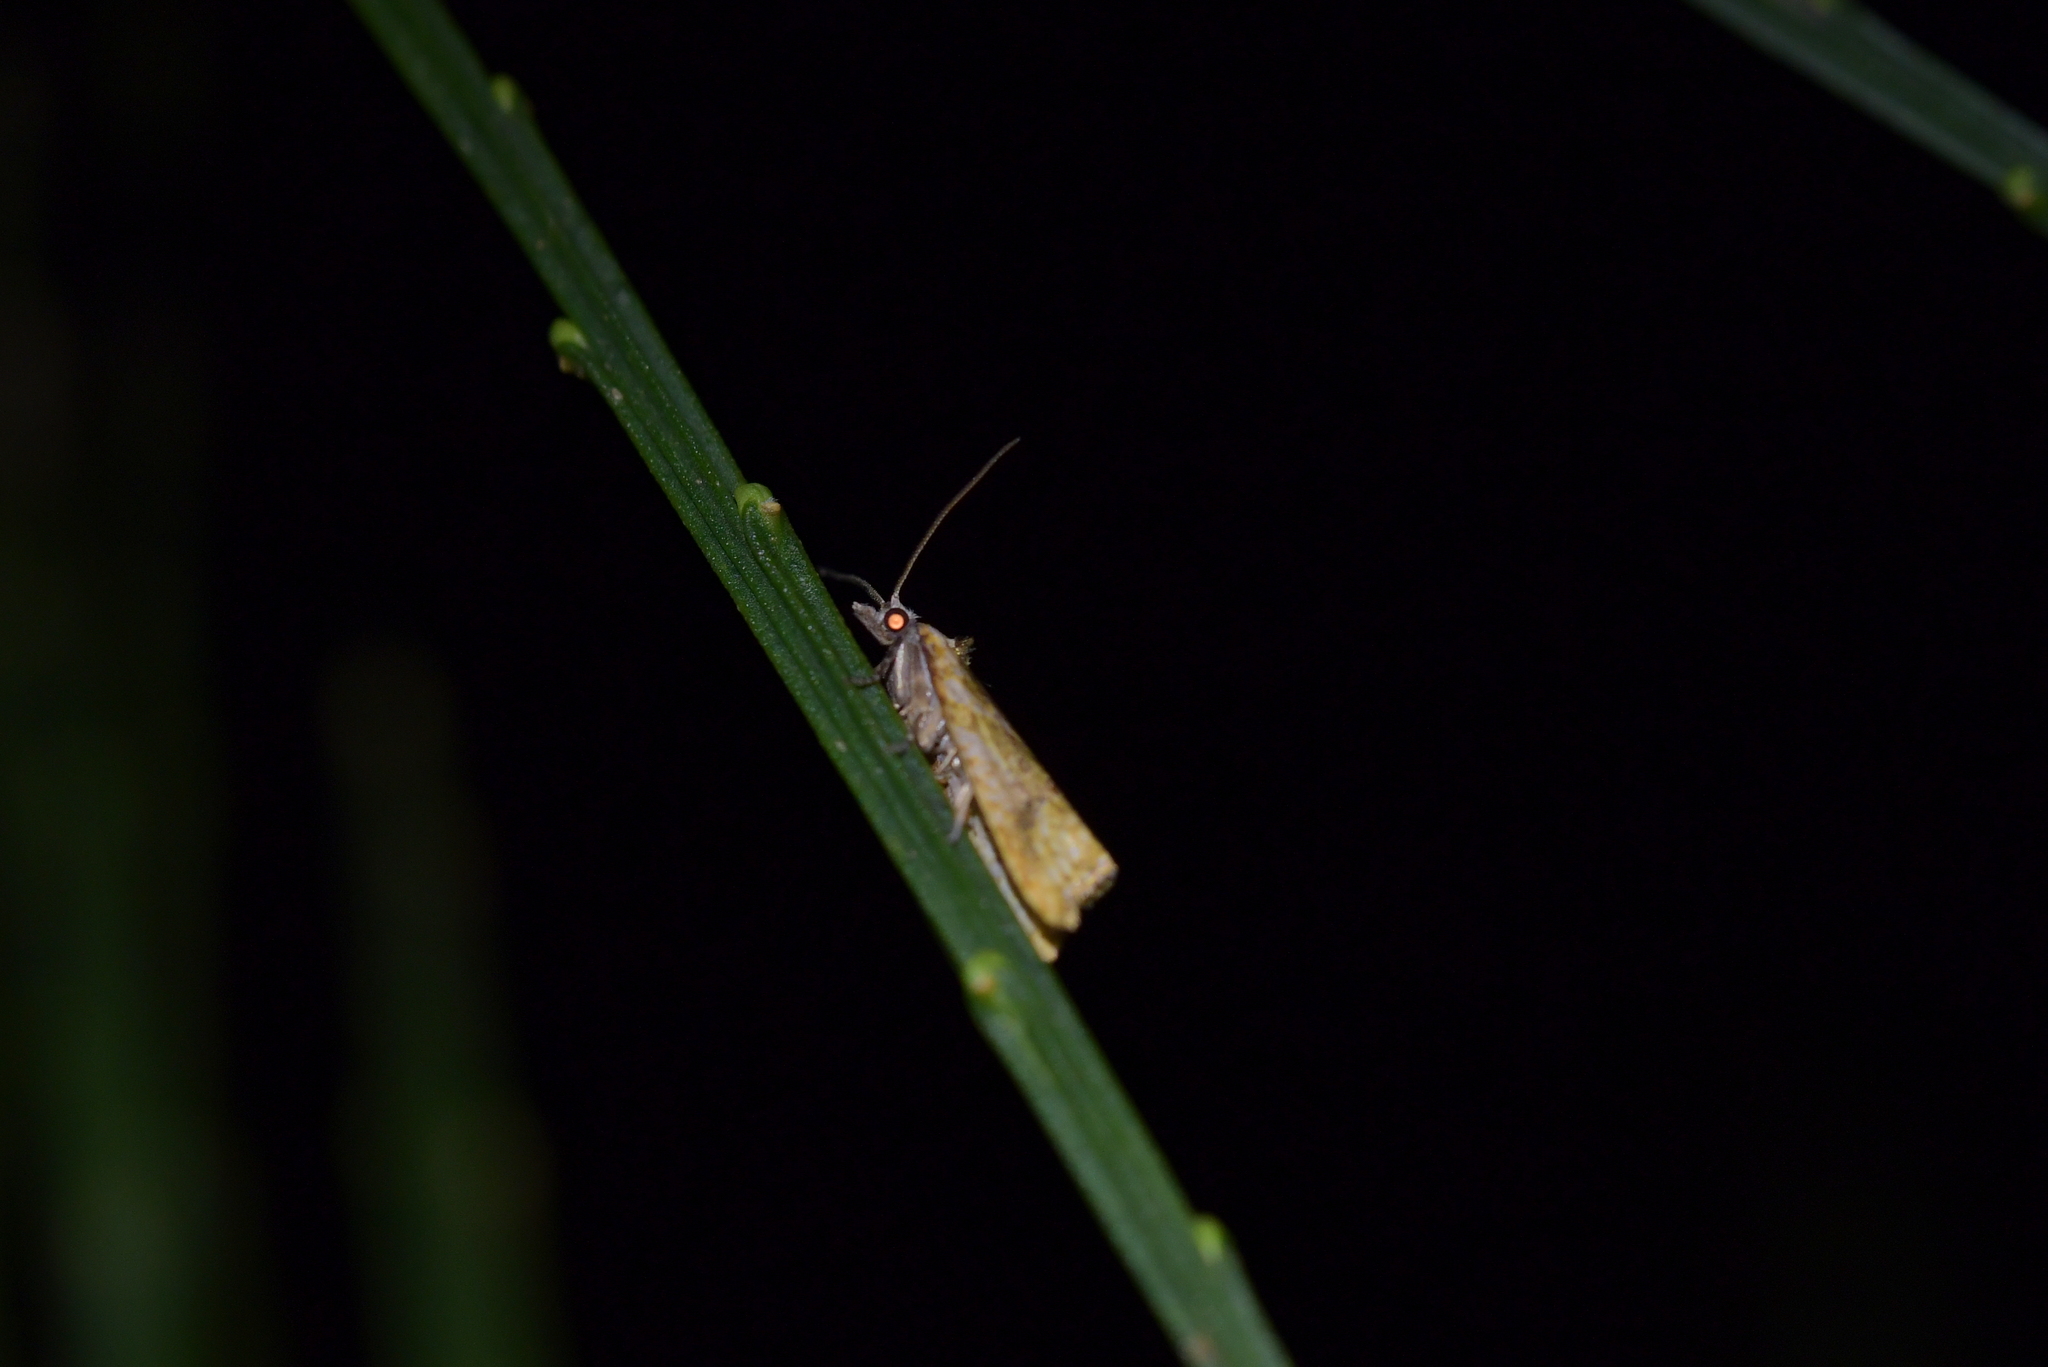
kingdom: Animalia
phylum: Arthropoda
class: Insecta
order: Lepidoptera
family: Tortricidae
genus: Pyrgotis
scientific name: Pyrgotis plagiatana
